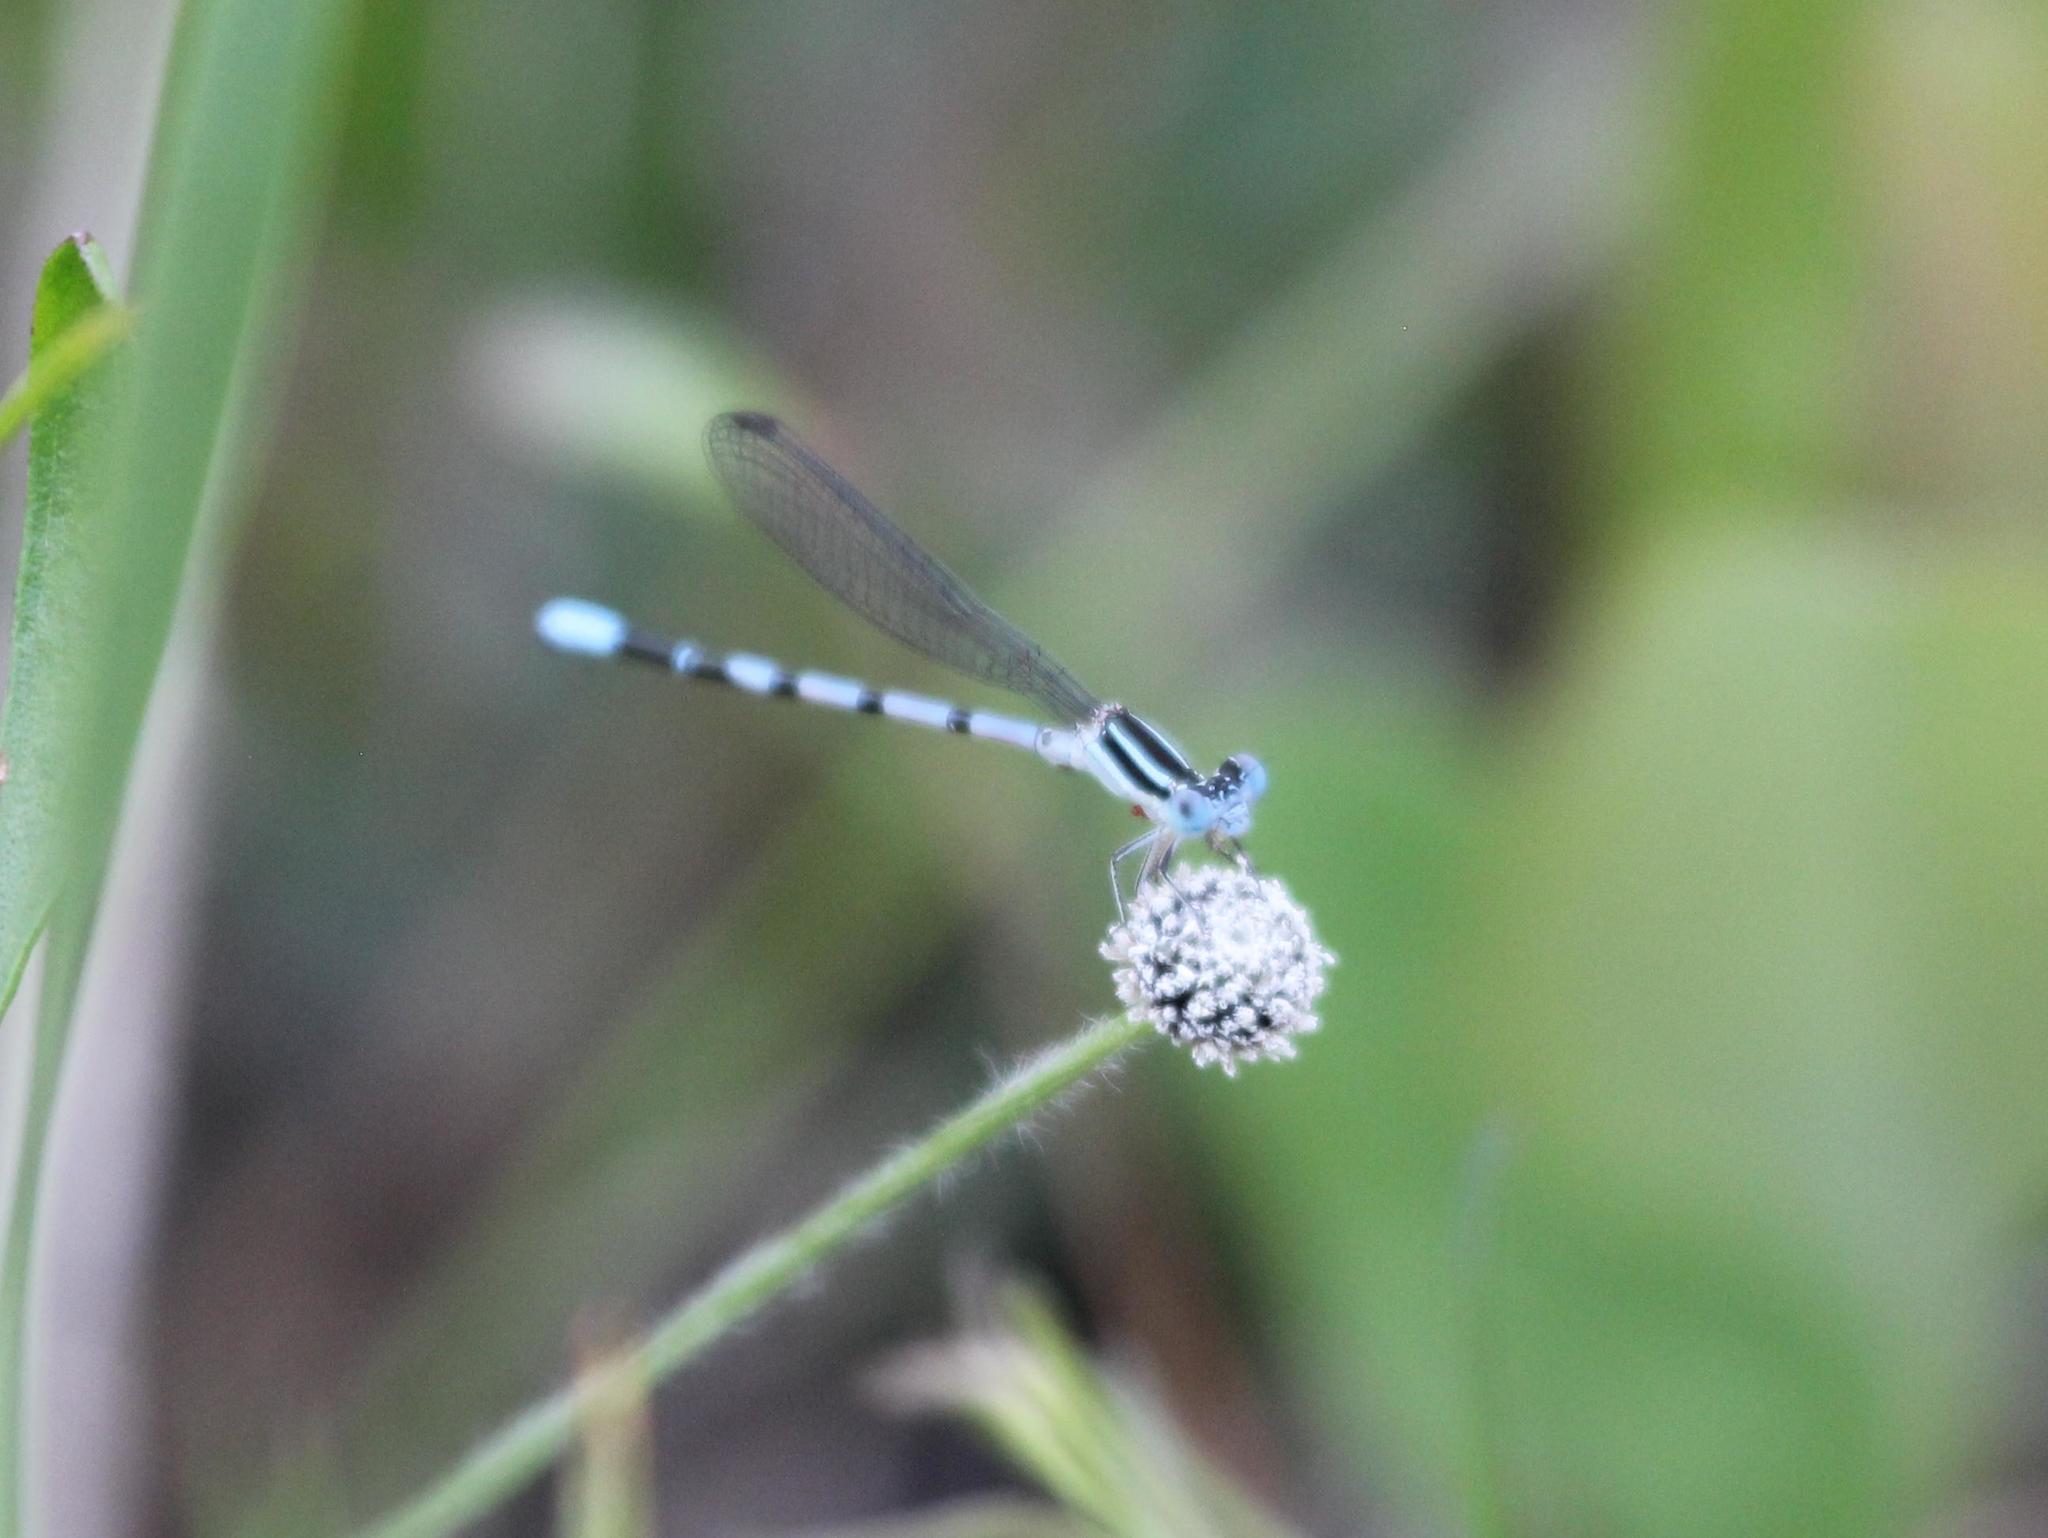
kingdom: Animalia
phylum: Arthropoda
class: Insecta
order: Odonata
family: Coenagrionidae
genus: Argia
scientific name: Argia bipunctulata
